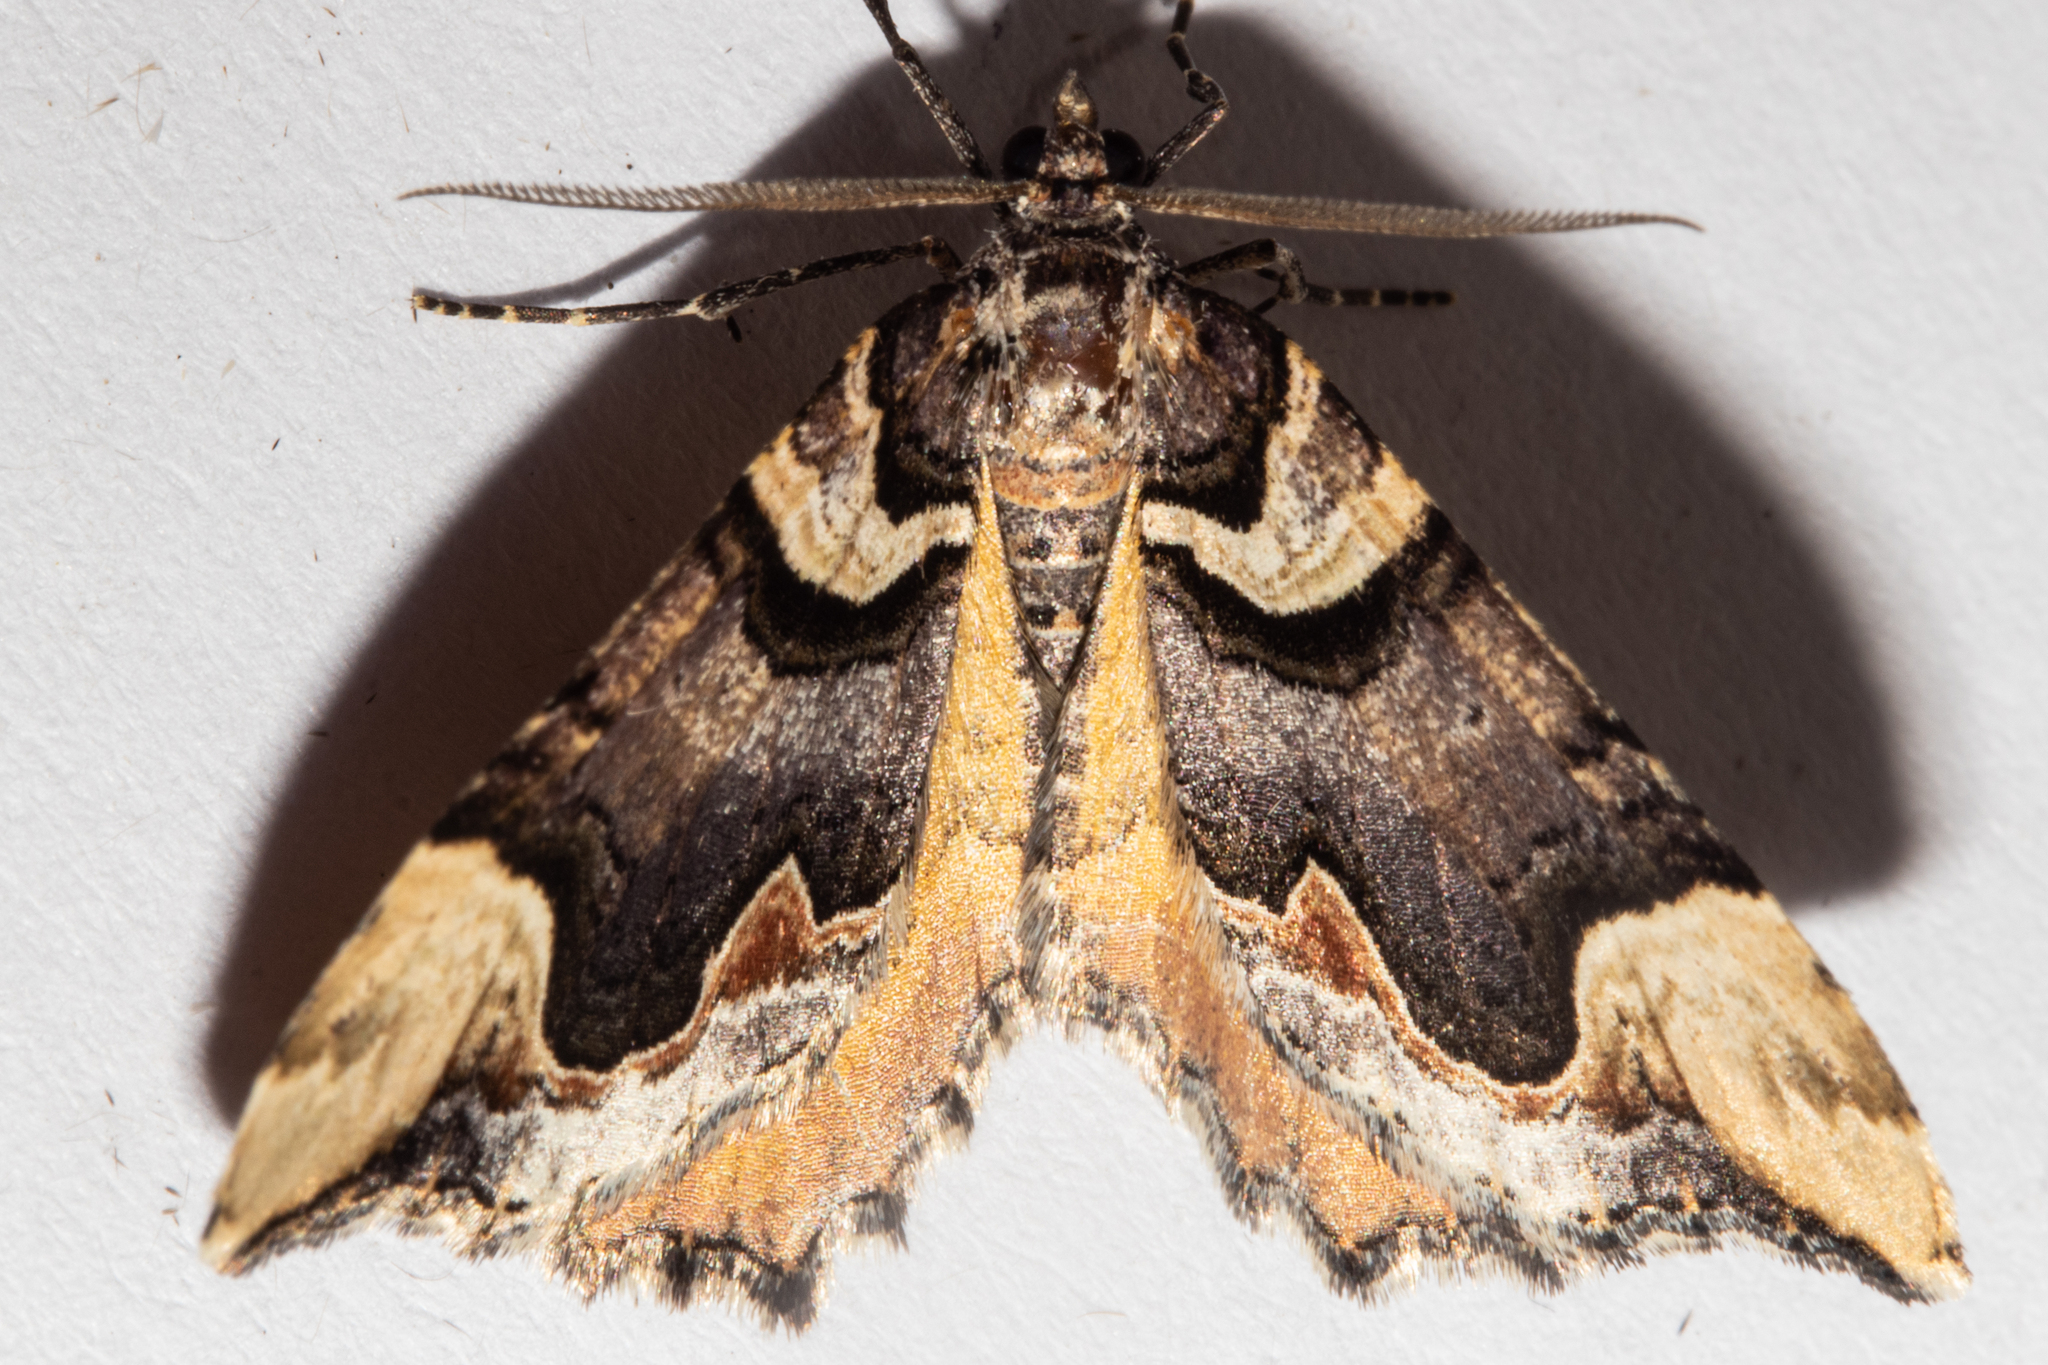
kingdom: Animalia
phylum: Arthropoda
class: Insecta
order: Lepidoptera
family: Geometridae
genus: Asaphodes
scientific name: Asaphodes chlamydota
